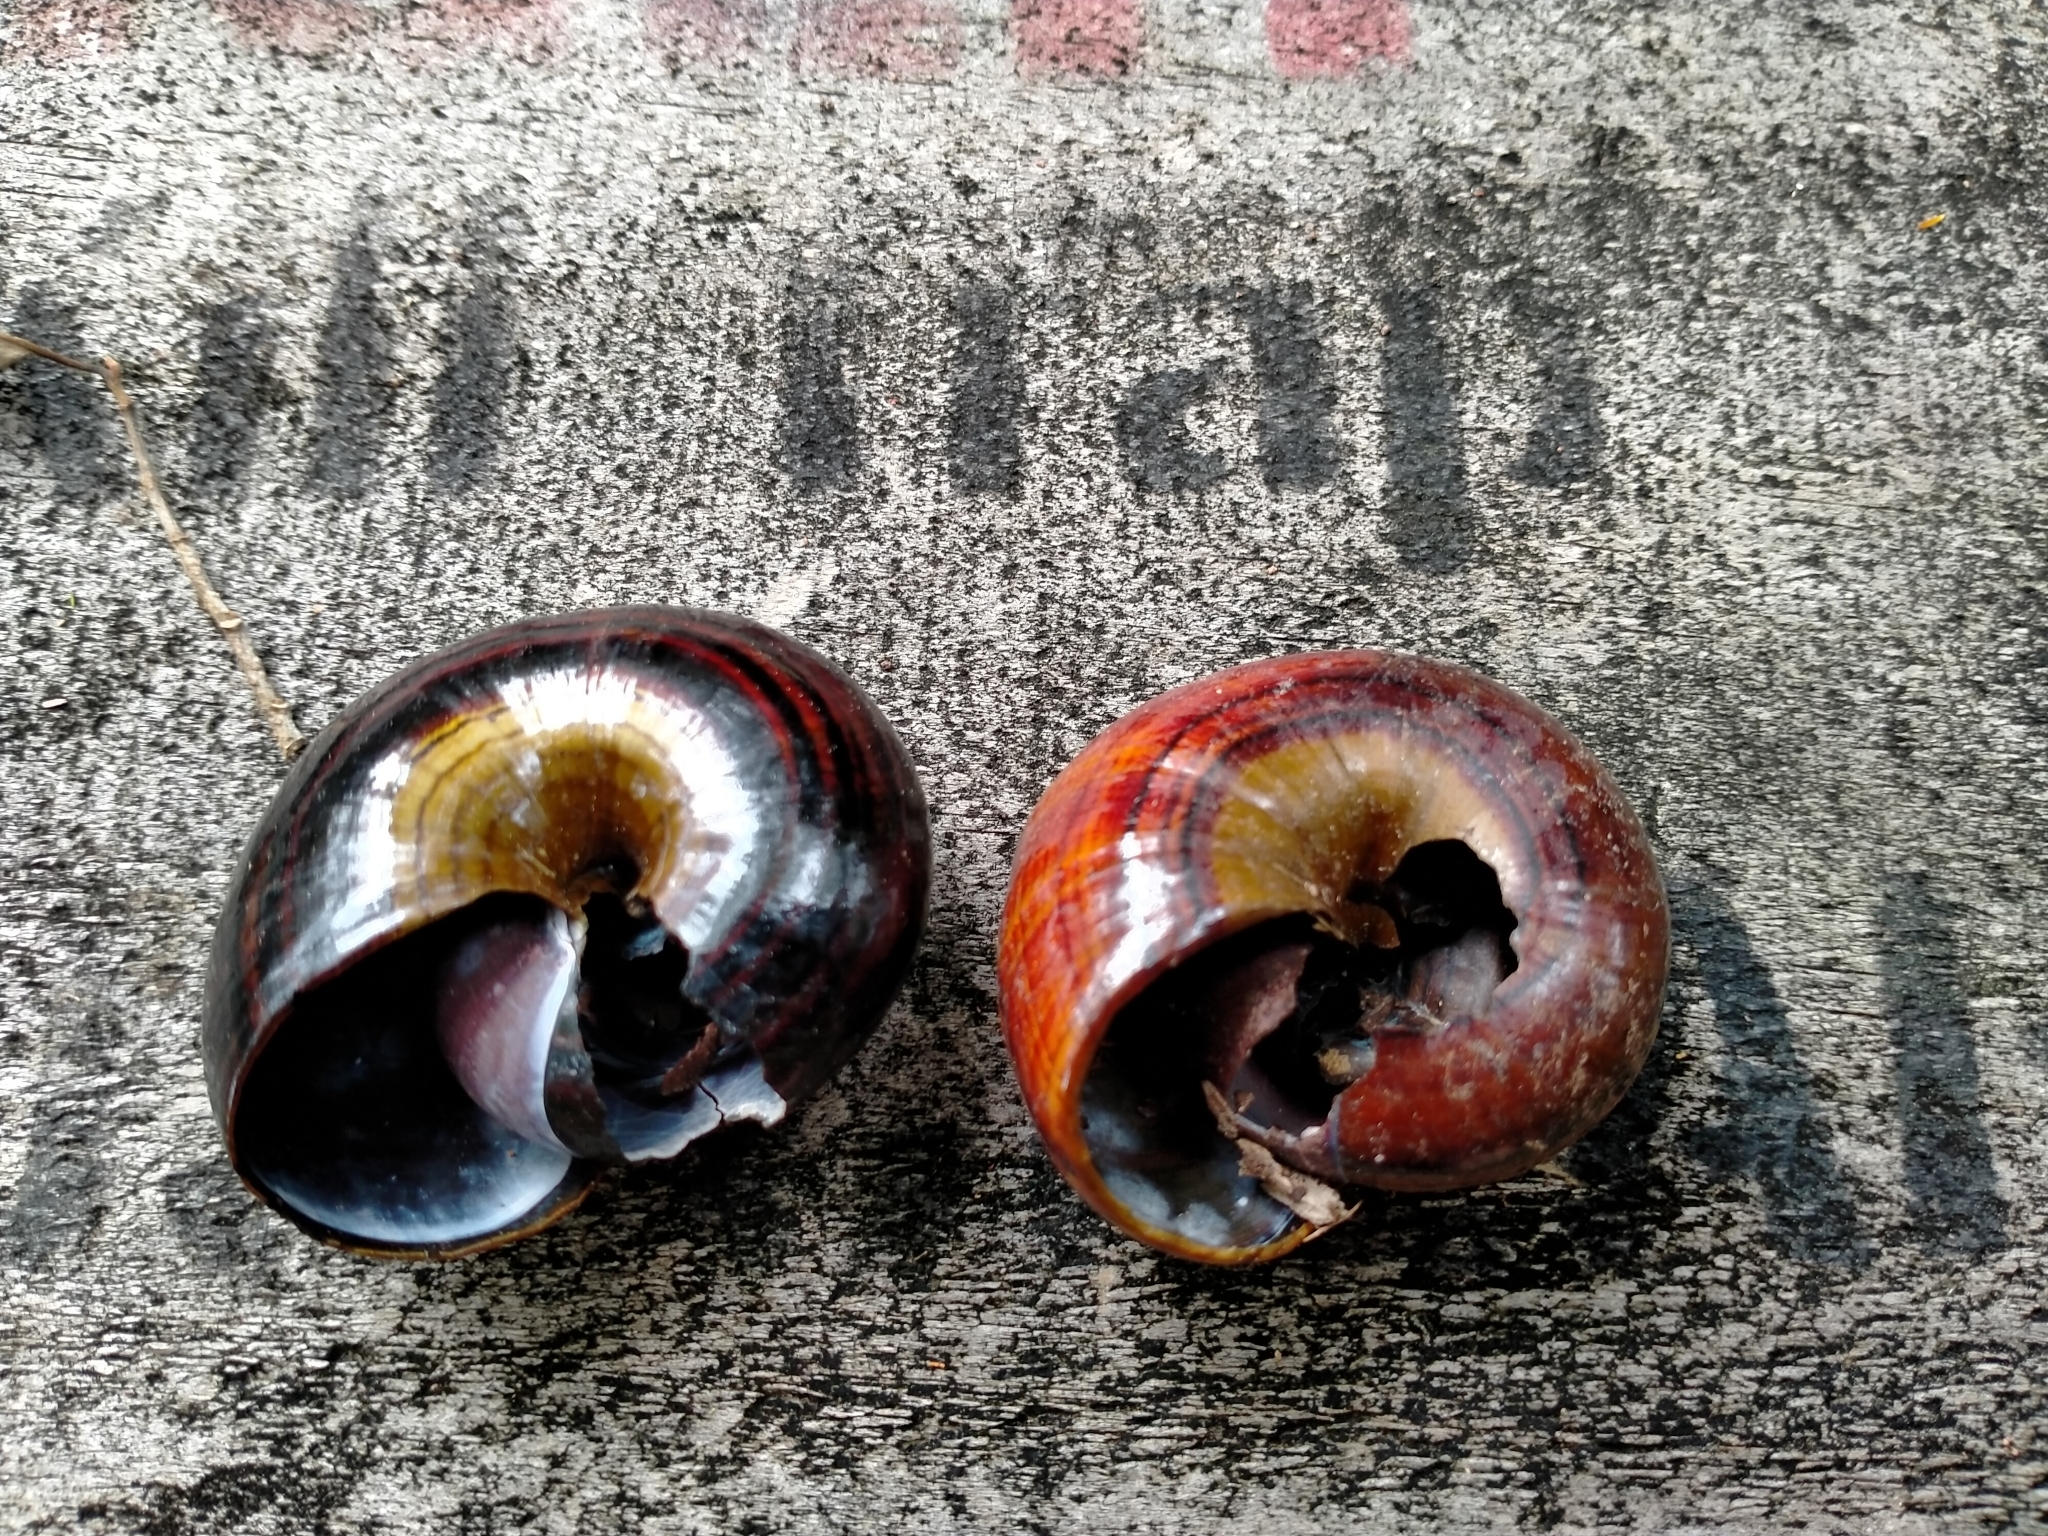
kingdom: Animalia
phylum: Mollusca
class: Gastropoda
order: Stylommatophora
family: Rhytididae
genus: Powelliphanta
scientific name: Powelliphanta hochstetteri
